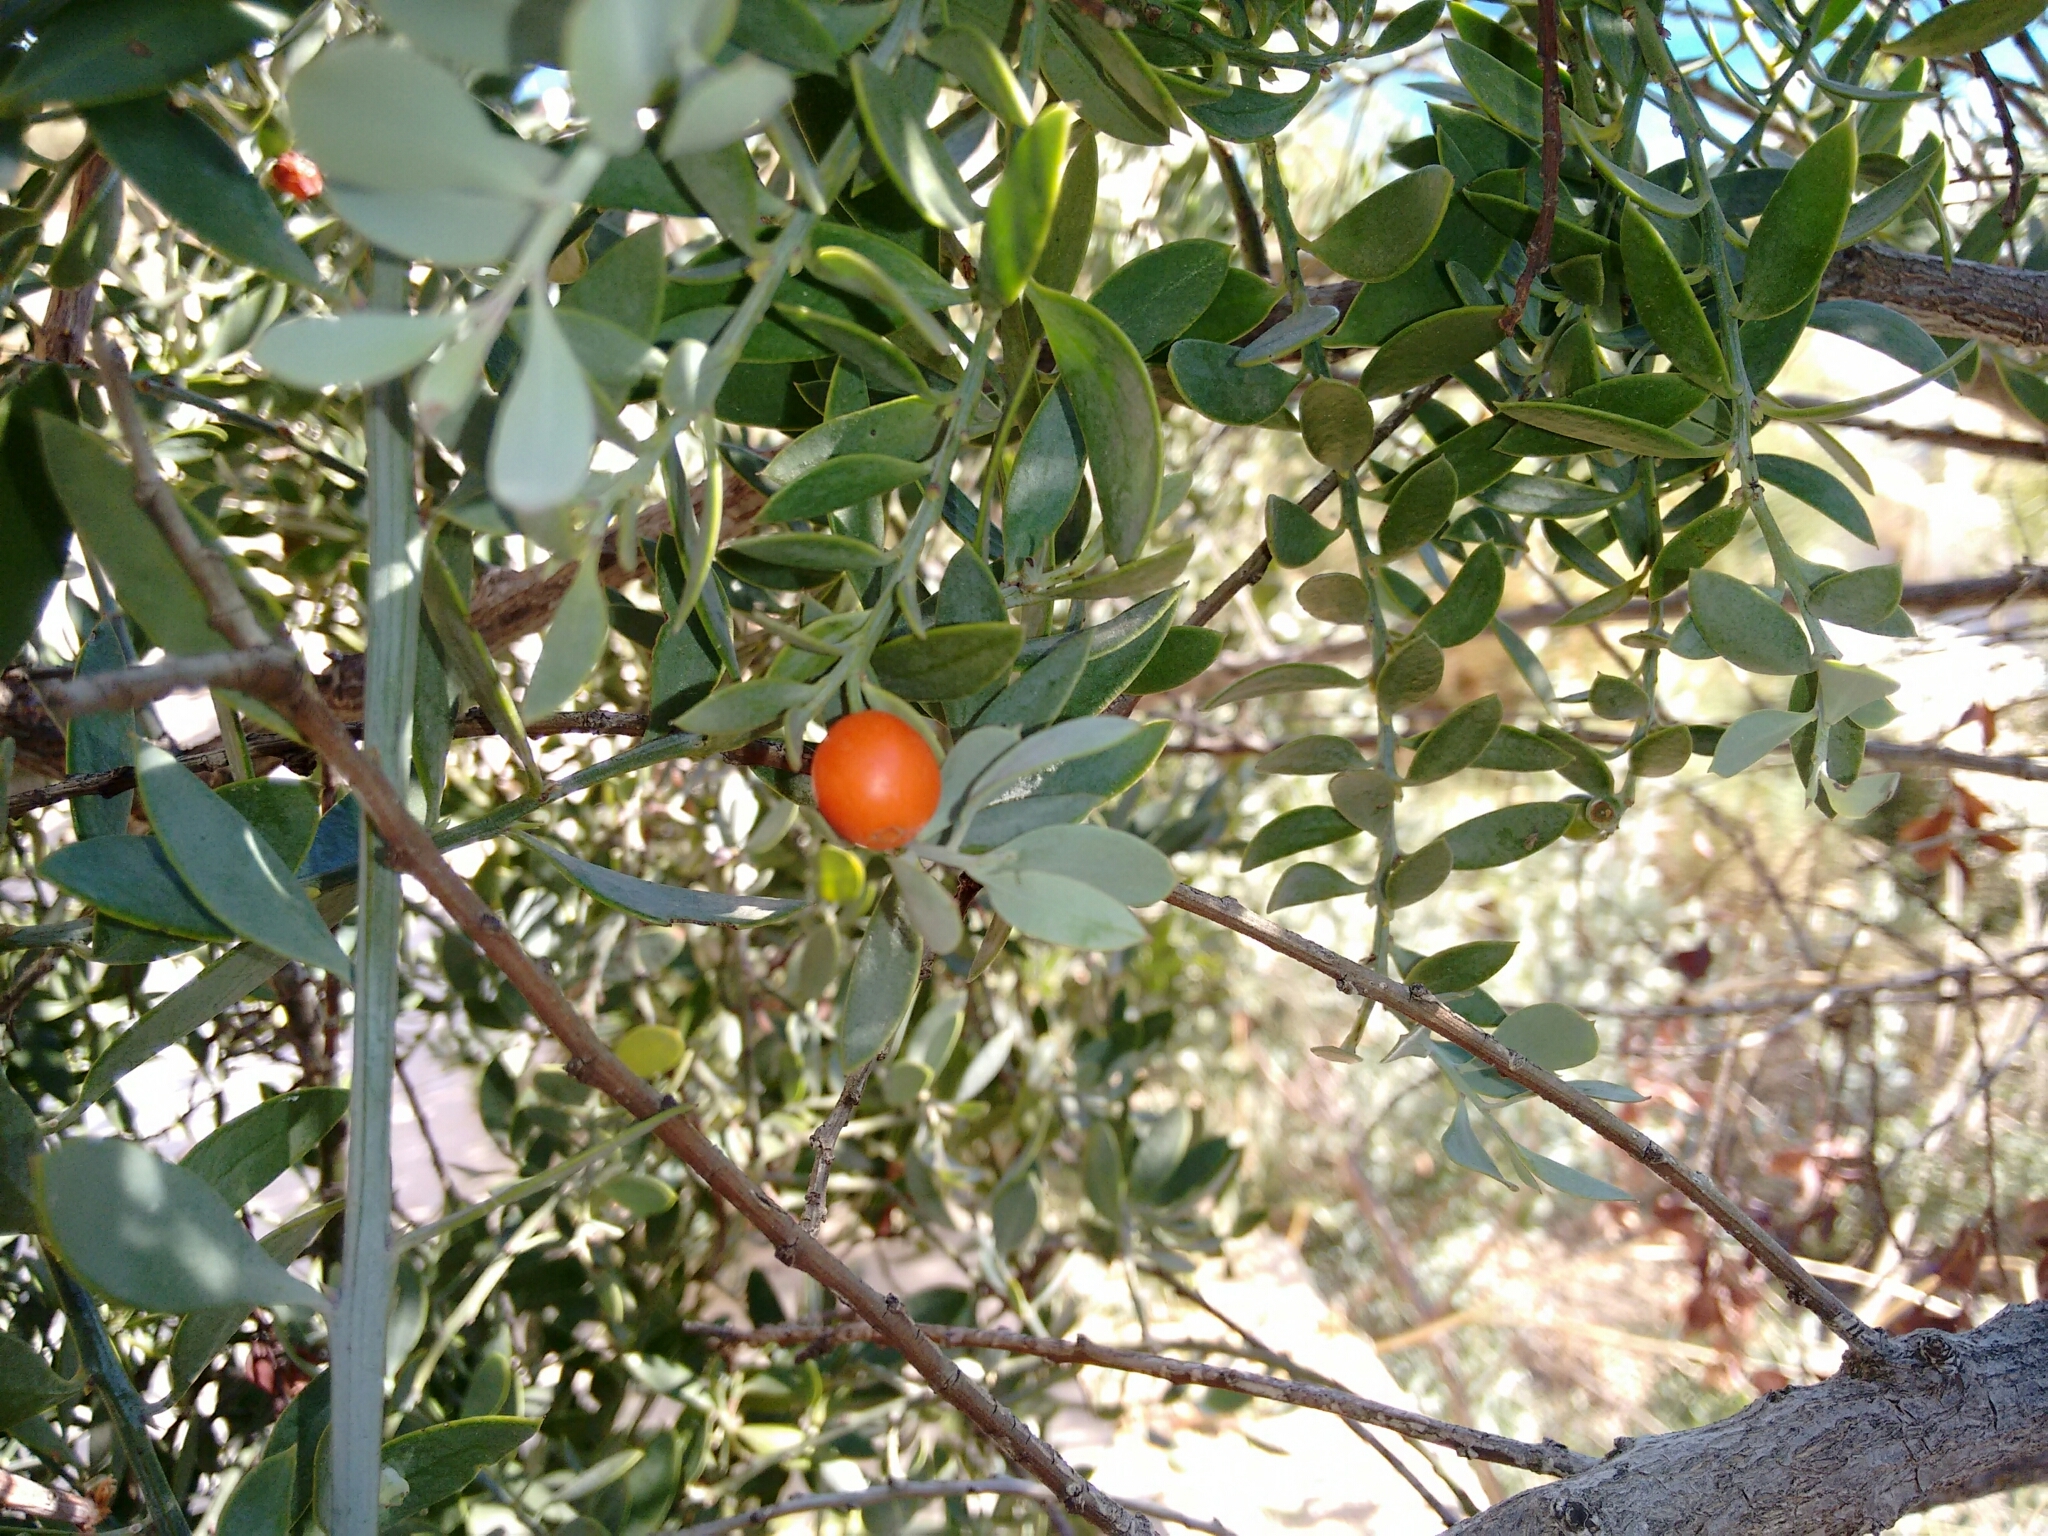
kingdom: Plantae
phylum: Tracheophyta
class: Magnoliopsida
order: Santalales
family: Santalaceae
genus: Osyris
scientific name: Osyris lanceolata
